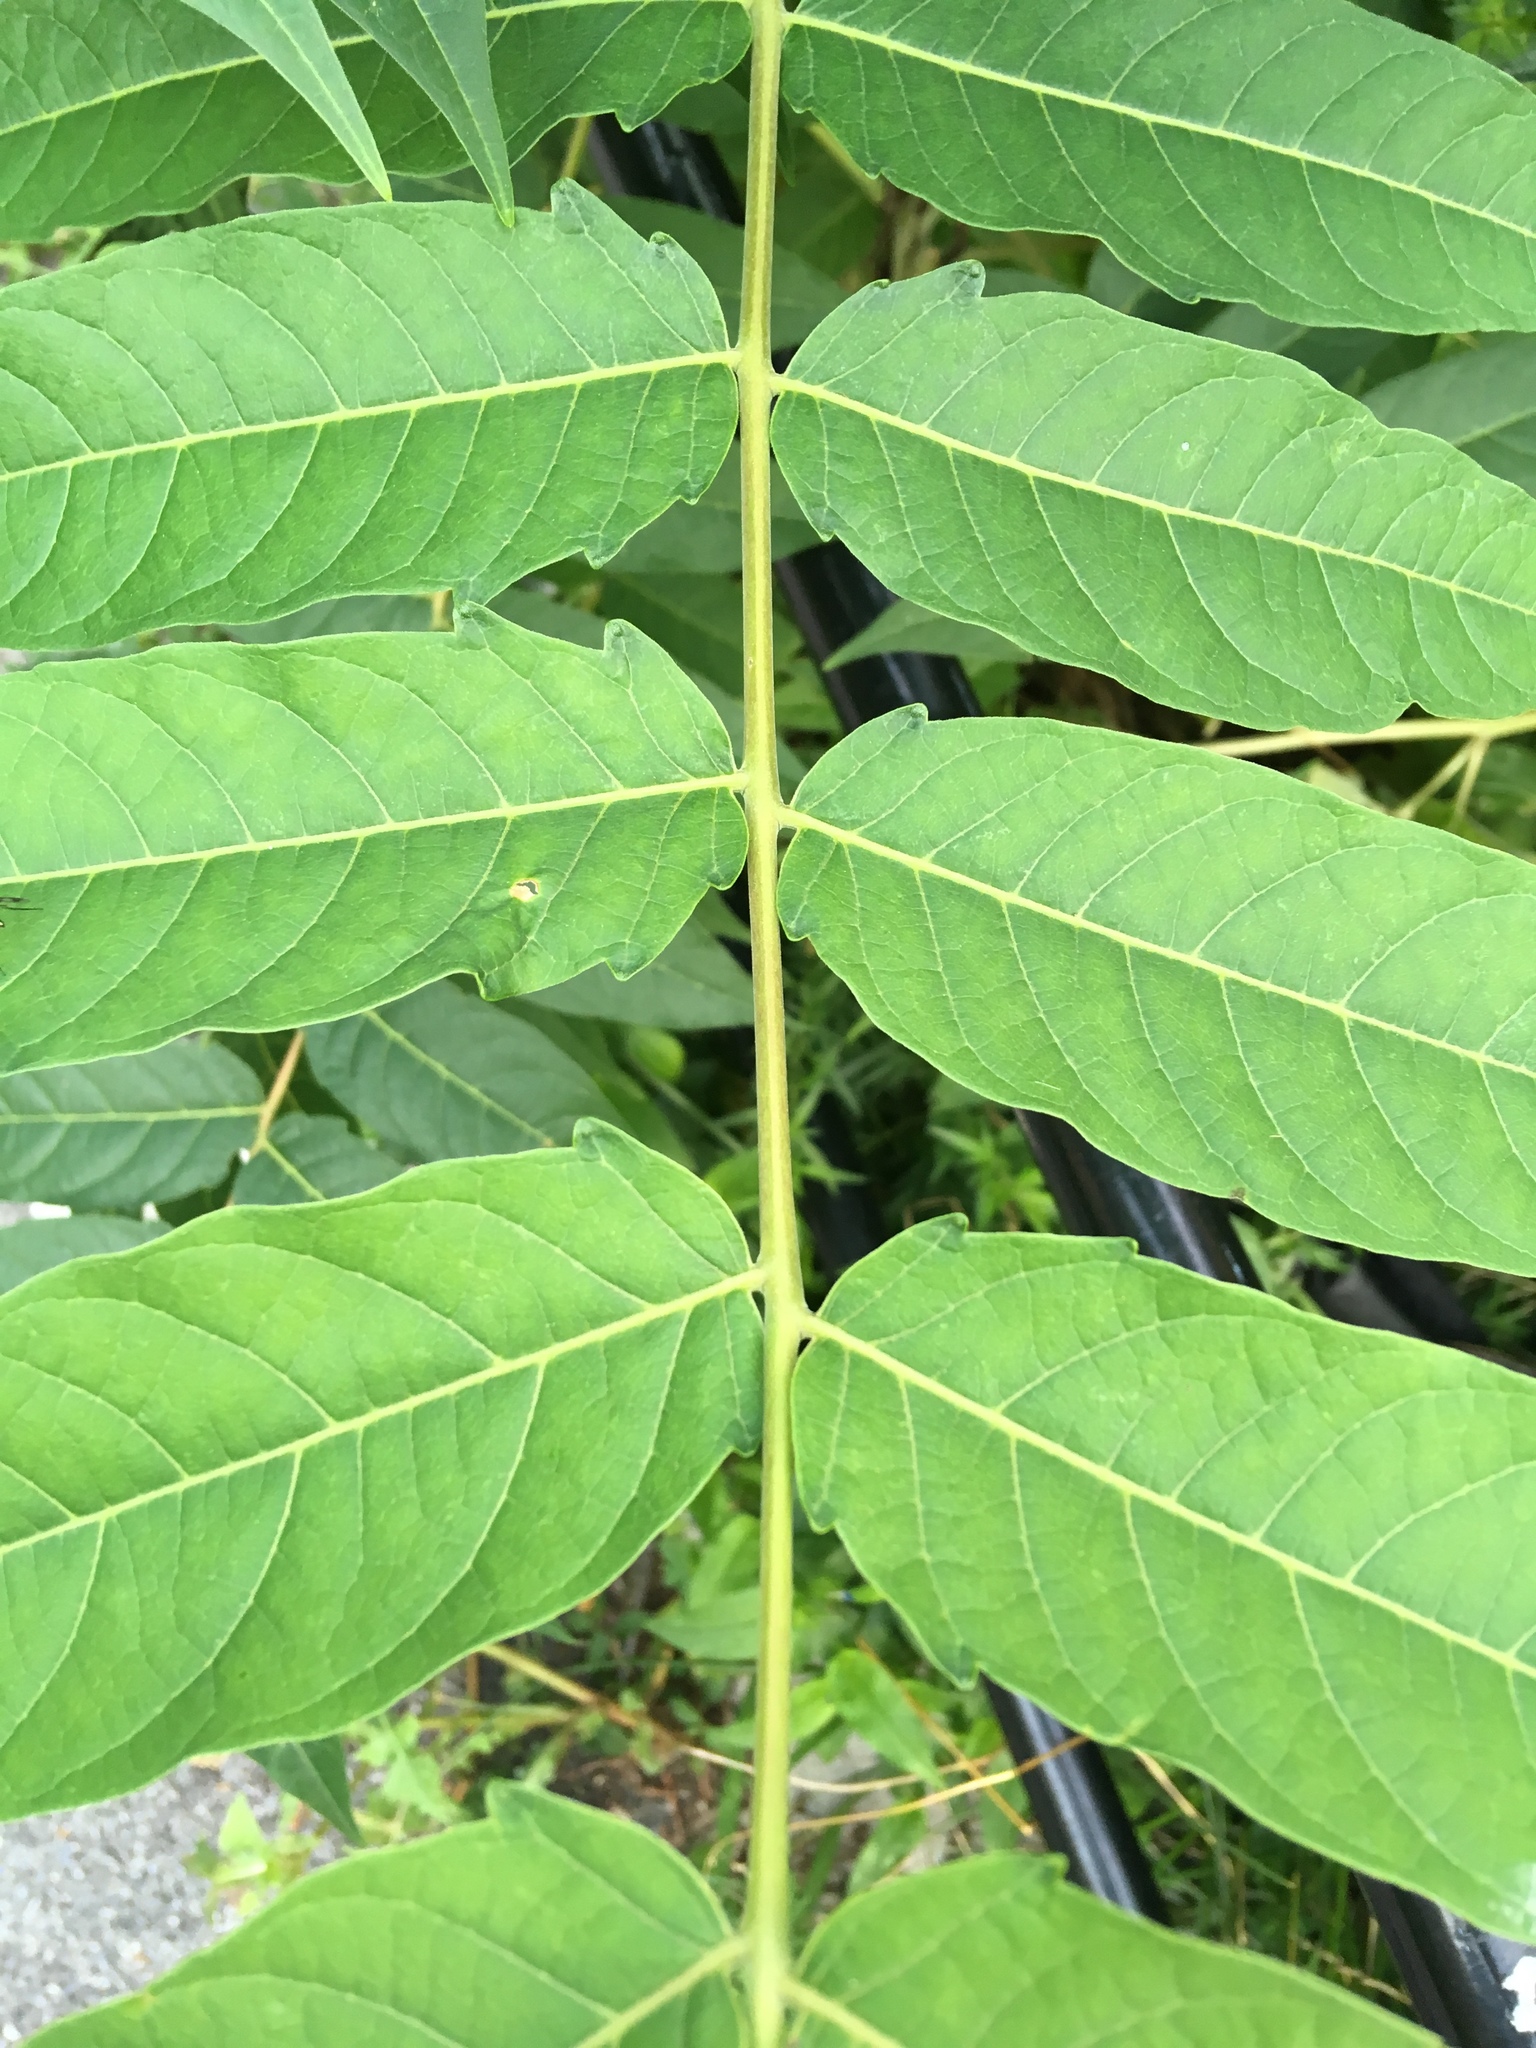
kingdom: Plantae
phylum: Tracheophyta
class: Magnoliopsida
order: Sapindales
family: Simaroubaceae
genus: Ailanthus
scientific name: Ailanthus altissima
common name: Tree-of-heaven
